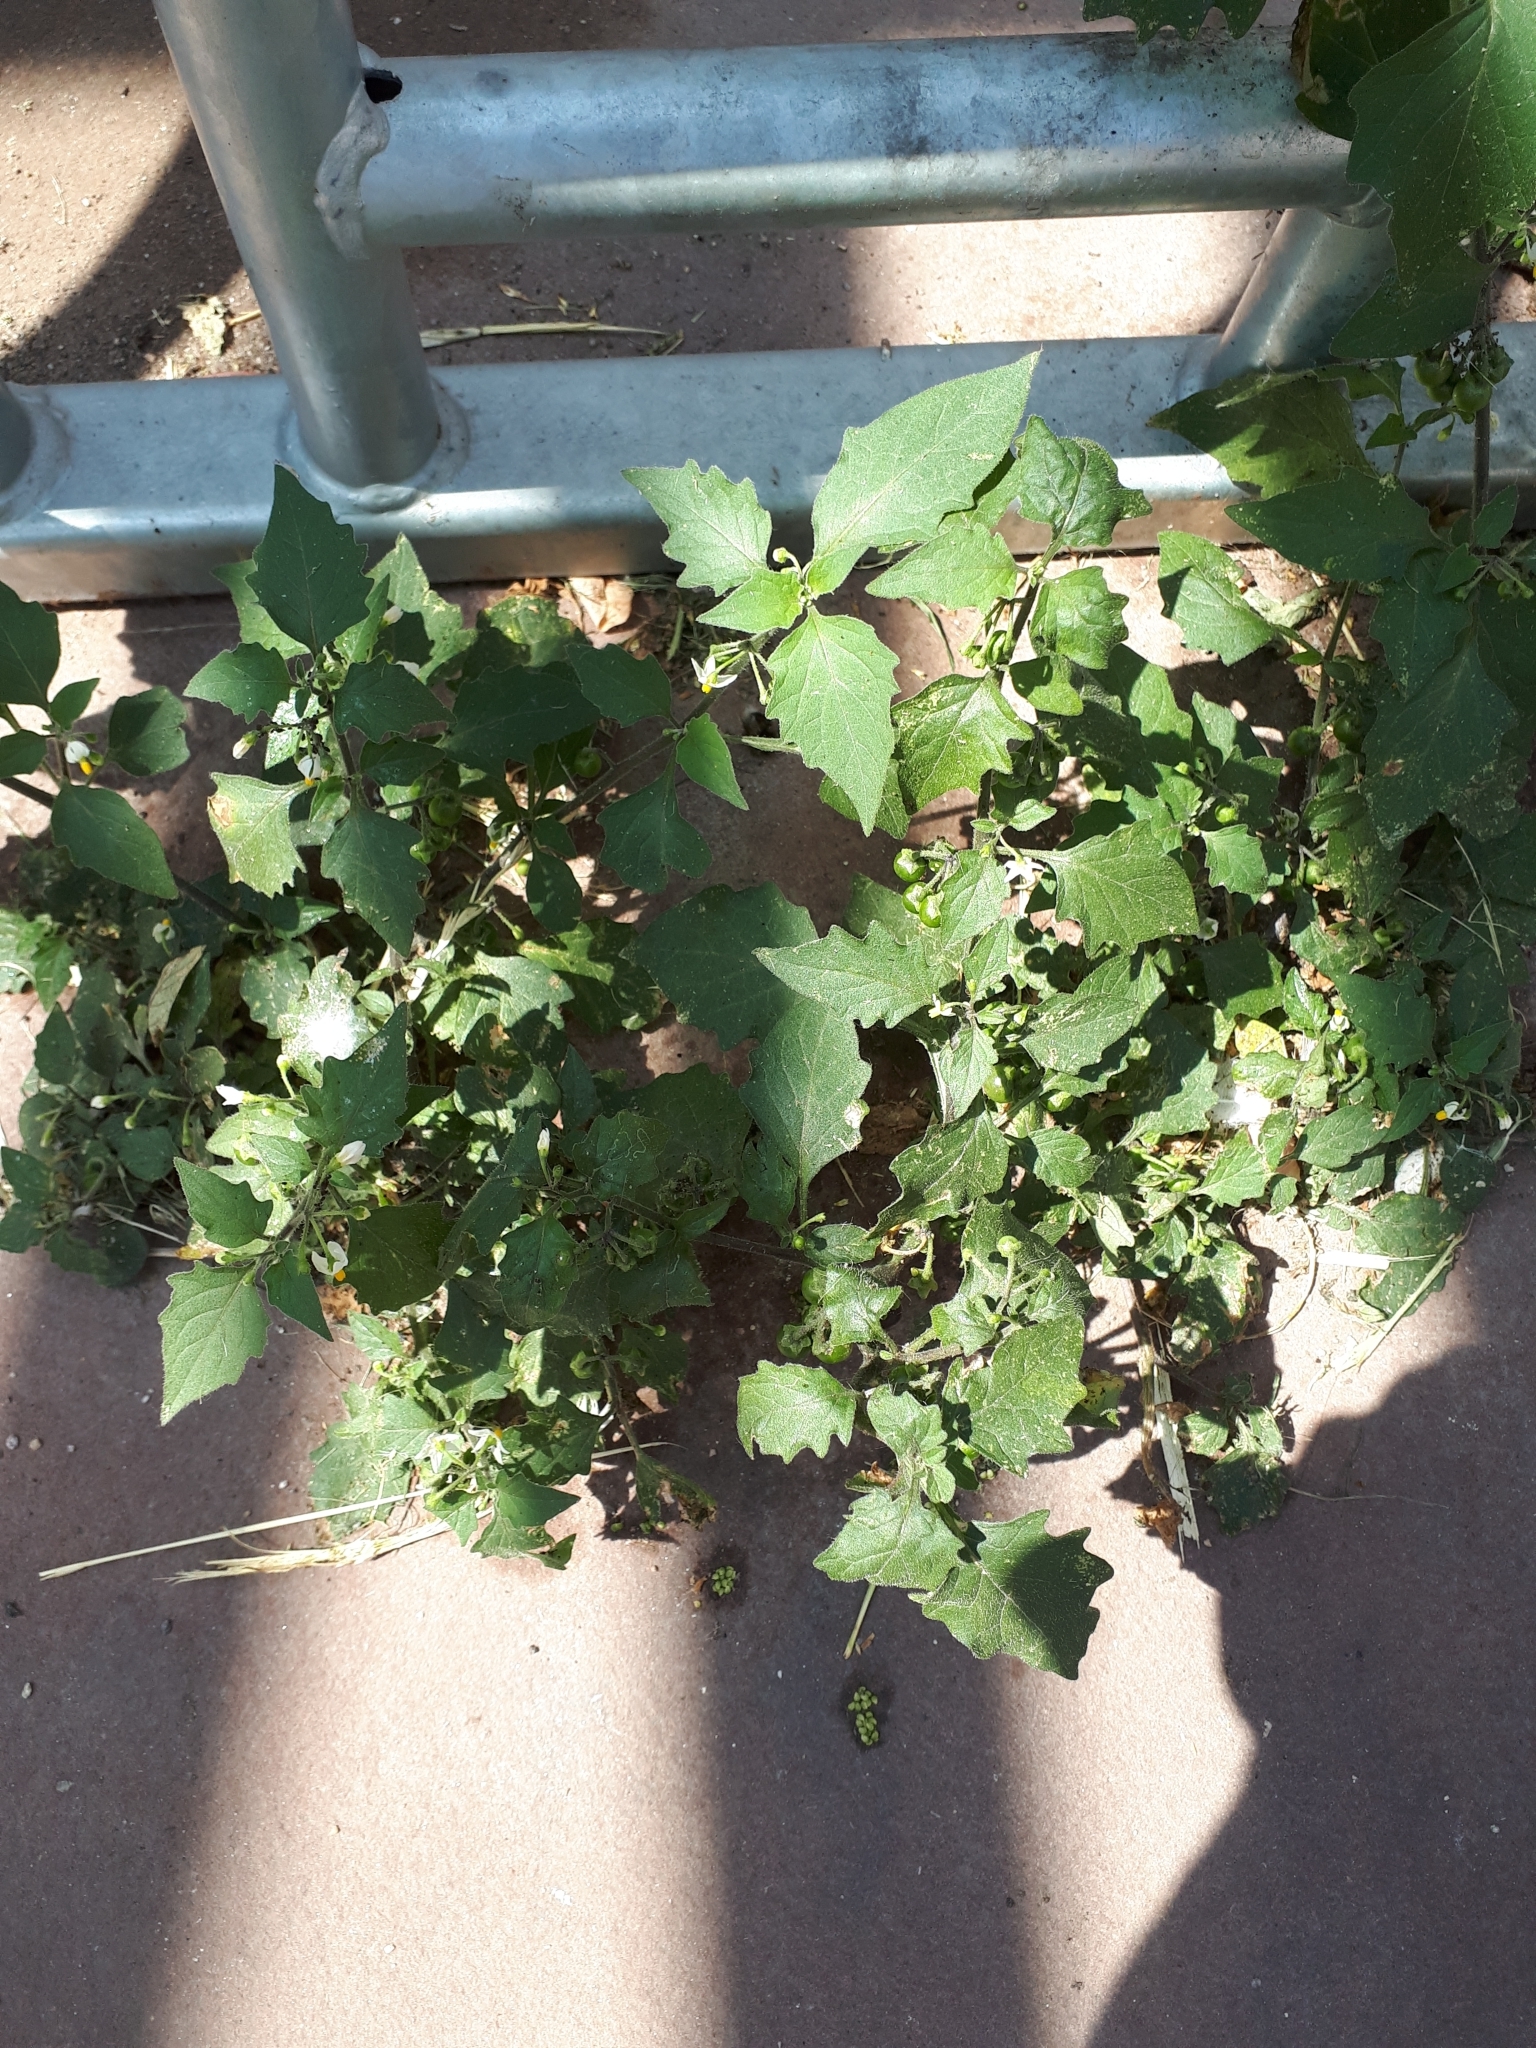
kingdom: Plantae
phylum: Tracheophyta
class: Magnoliopsida
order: Solanales
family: Solanaceae
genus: Solanum
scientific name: Solanum nigrum
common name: Black nightshade
